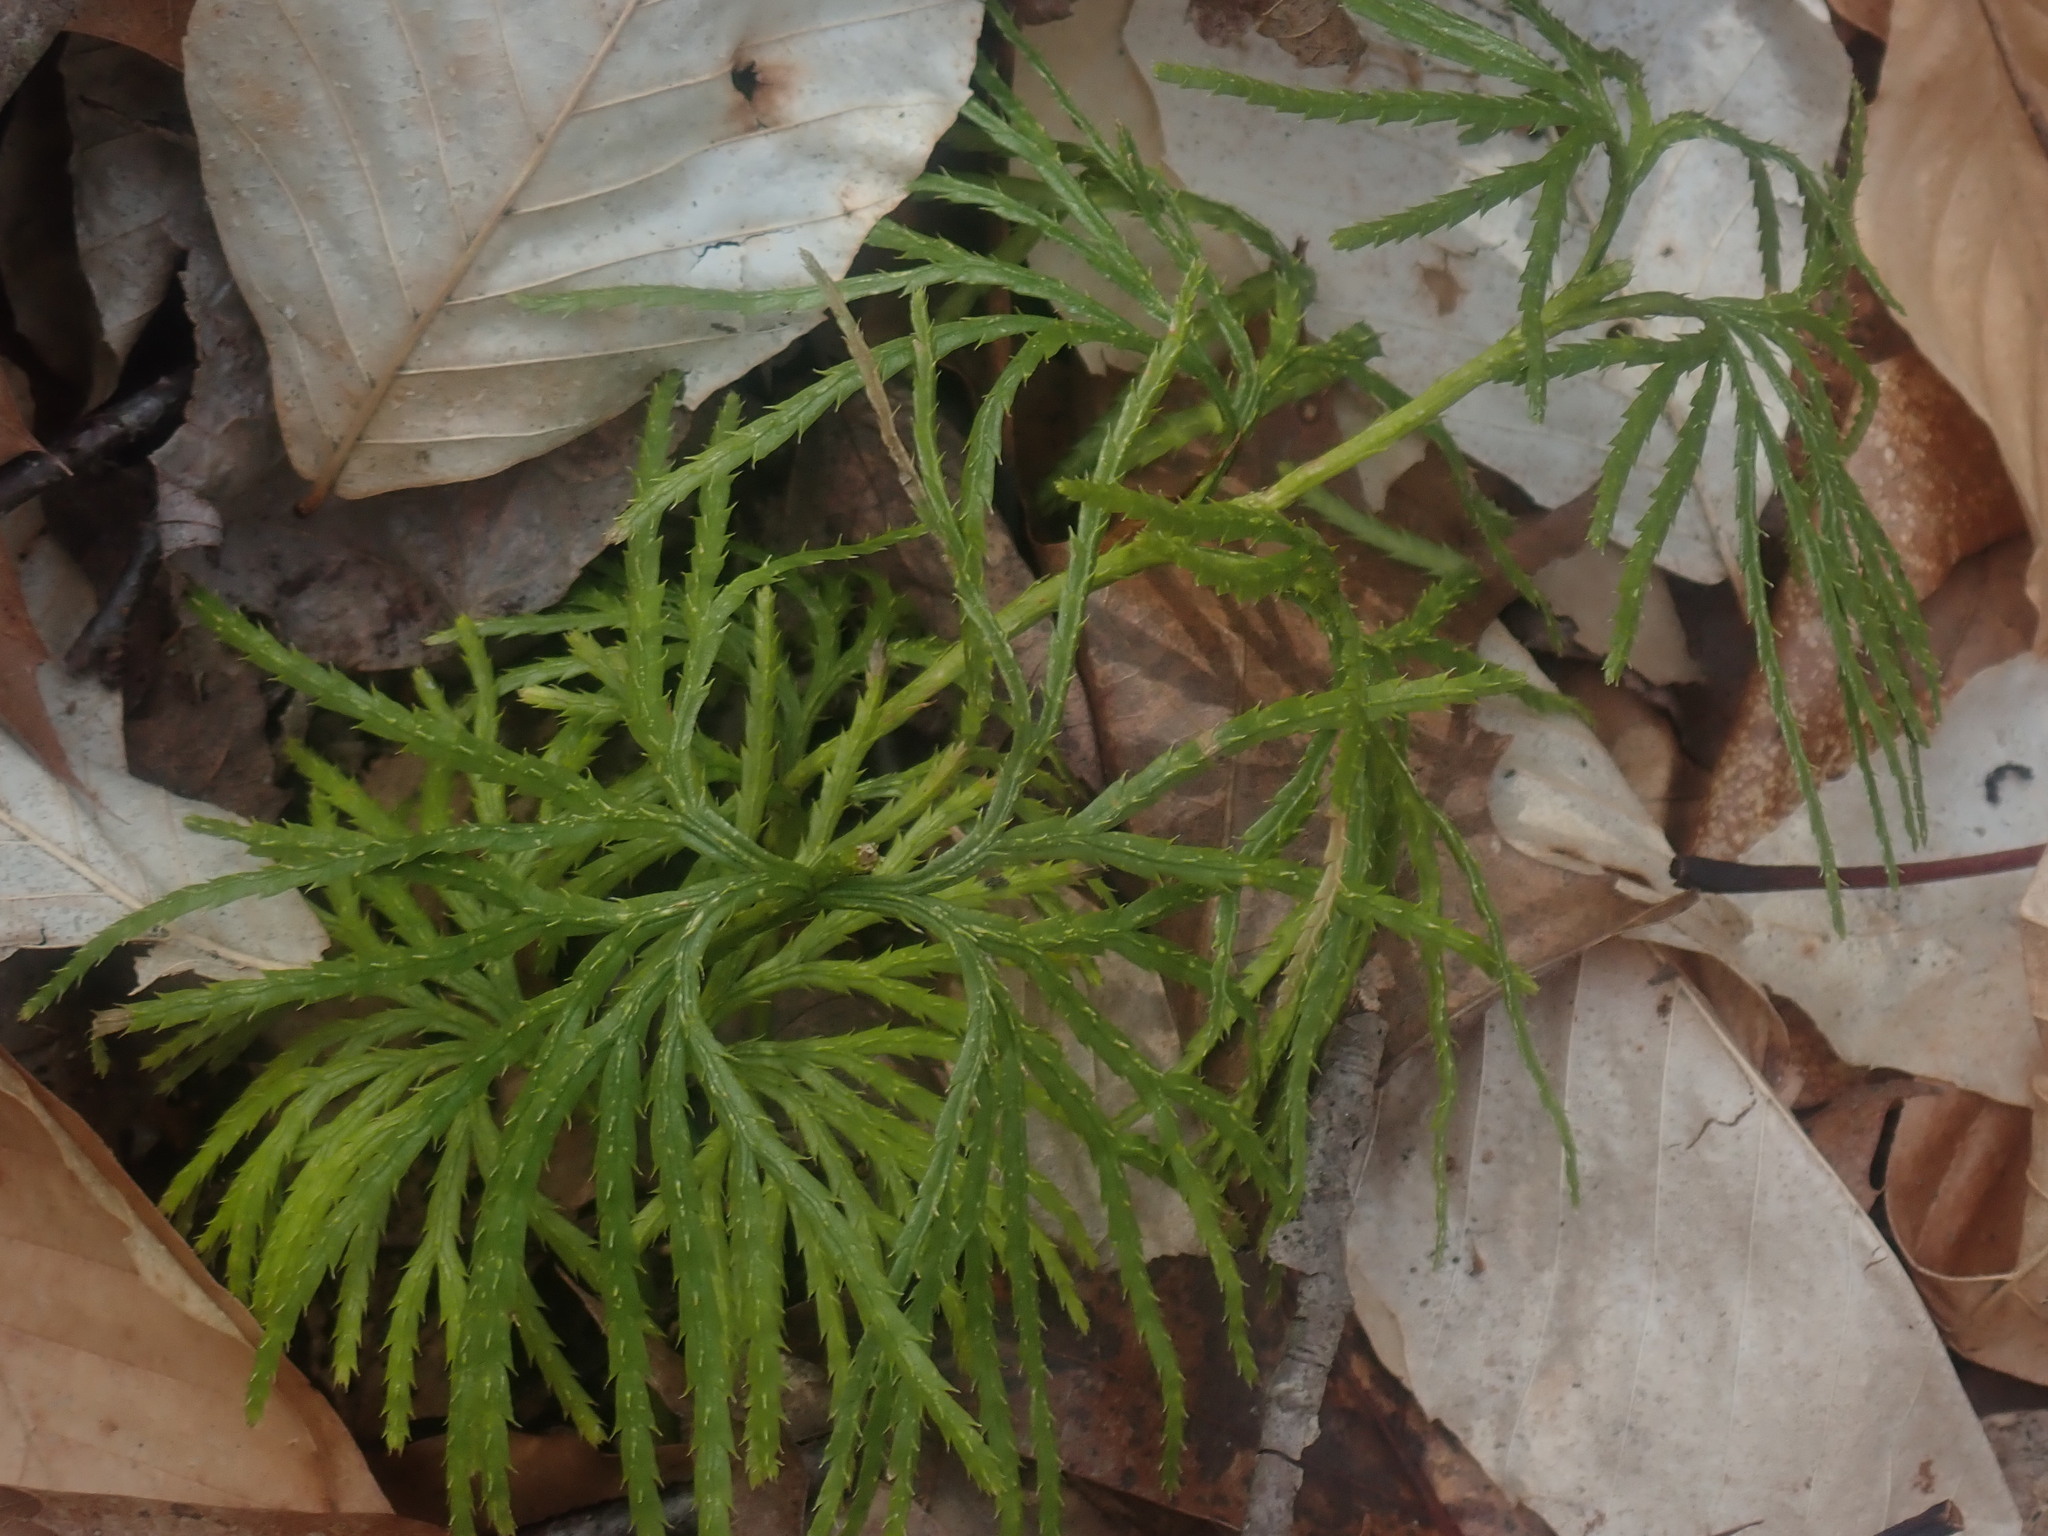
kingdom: Plantae
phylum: Tracheophyta
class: Lycopodiopsida
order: Lycopodiales
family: Lycopodiaceae
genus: Diphasiastrum
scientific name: Diphasiastrum digitatum
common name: Southern running-pine
